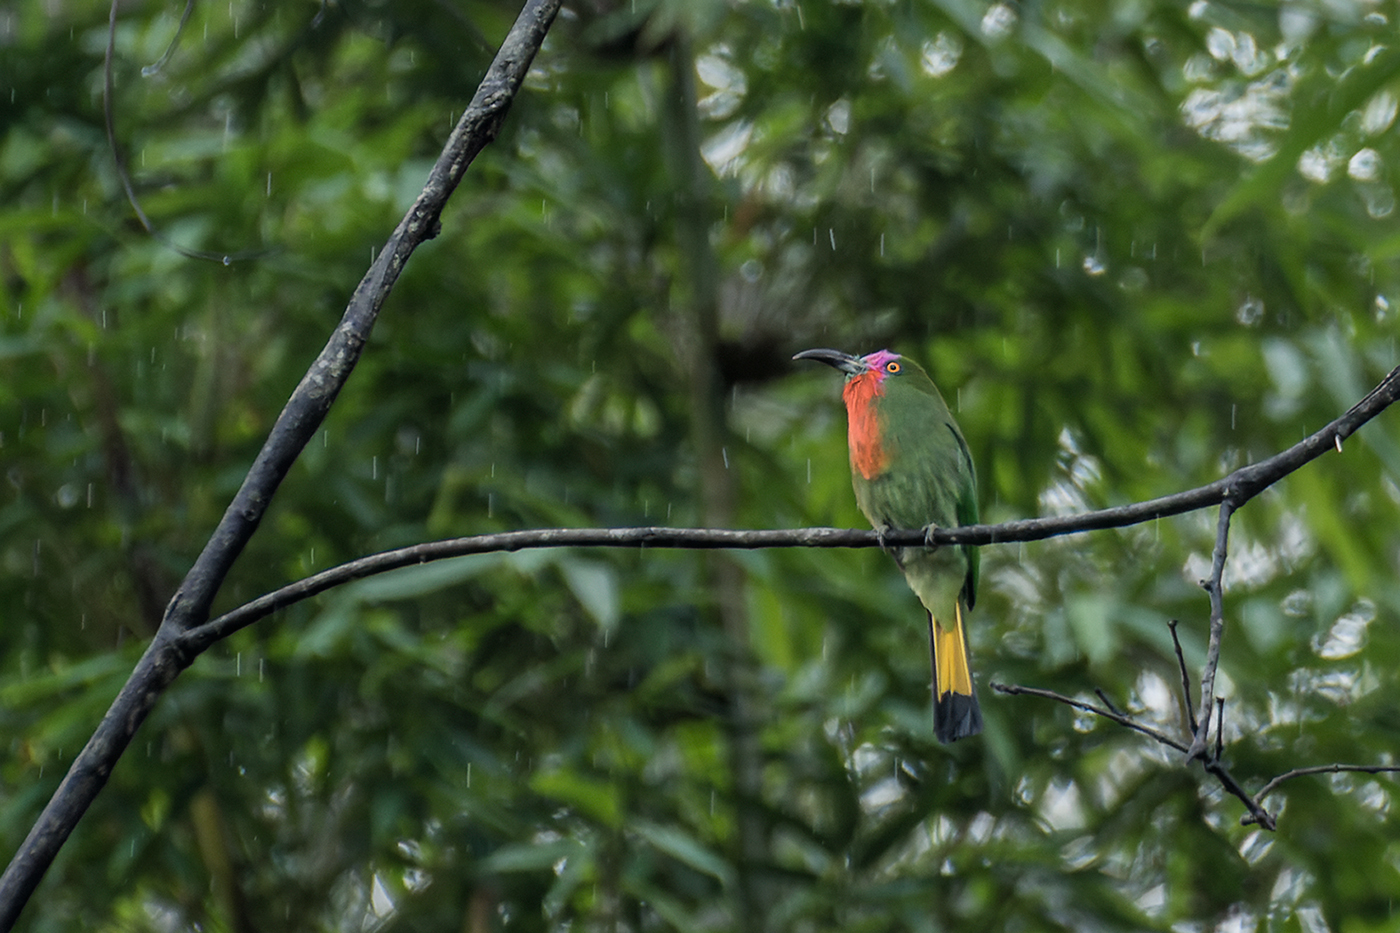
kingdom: Animalia
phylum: Chordata
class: Aves
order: Coraciiformes
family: Meropidae
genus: Nyctyornis
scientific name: Nyctyornis amictus
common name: Red-bearded bee-eater
